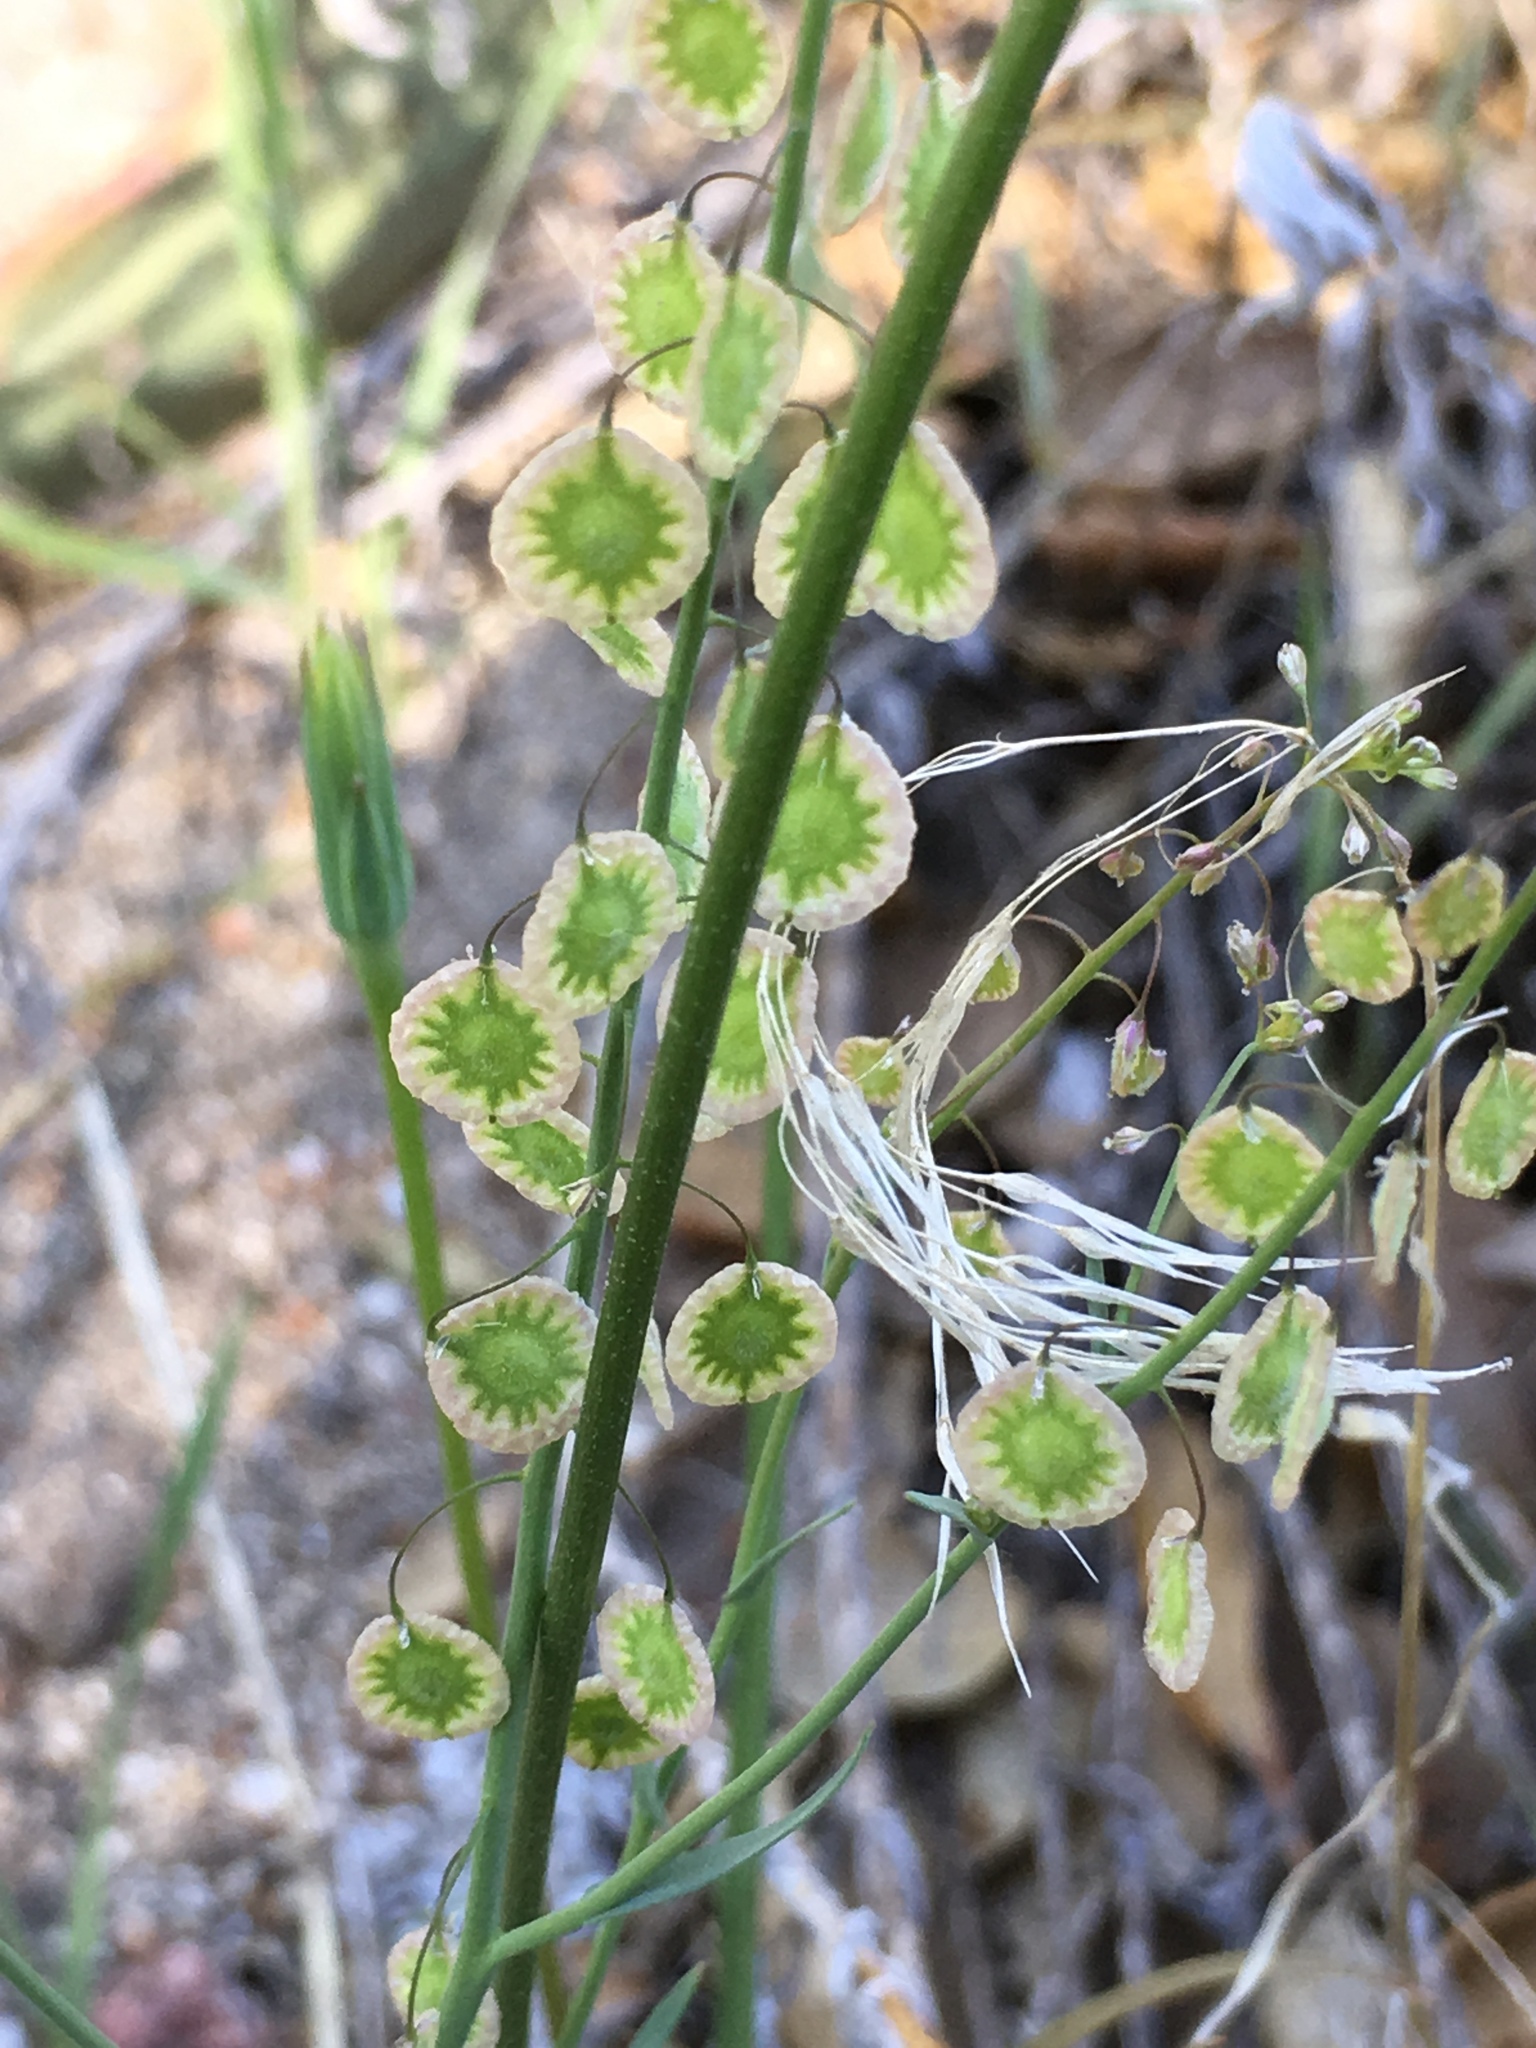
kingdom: Plantae
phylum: Tracheophyta
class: Magnoliopsida
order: Brassicales
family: Brassicaceae
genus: Thysanocarpus
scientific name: Thysanocarpus curvipes
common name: Sand fringepod
